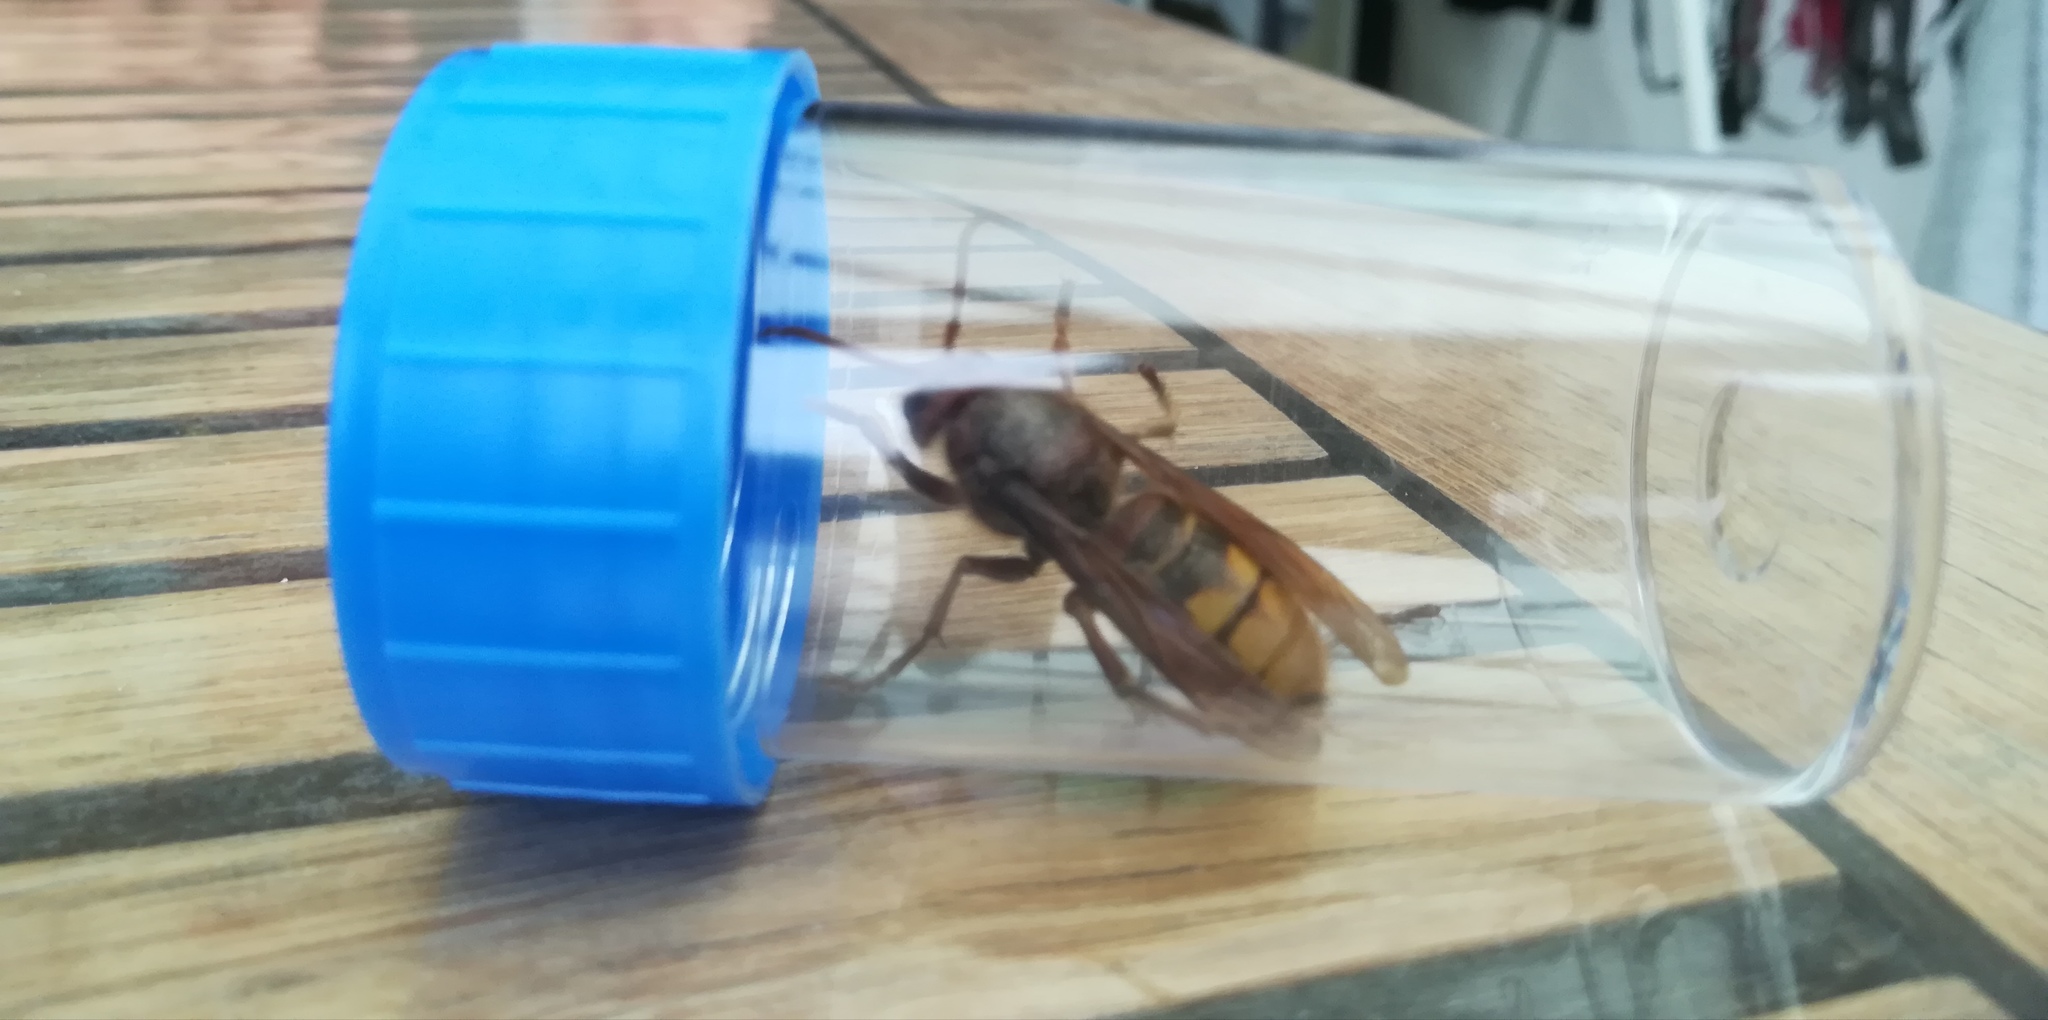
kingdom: Animalia
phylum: Arthropoda
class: Insecta
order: Hymenoptera
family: Vespidae
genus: Vespa
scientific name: Vespa crabro
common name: Hornet
